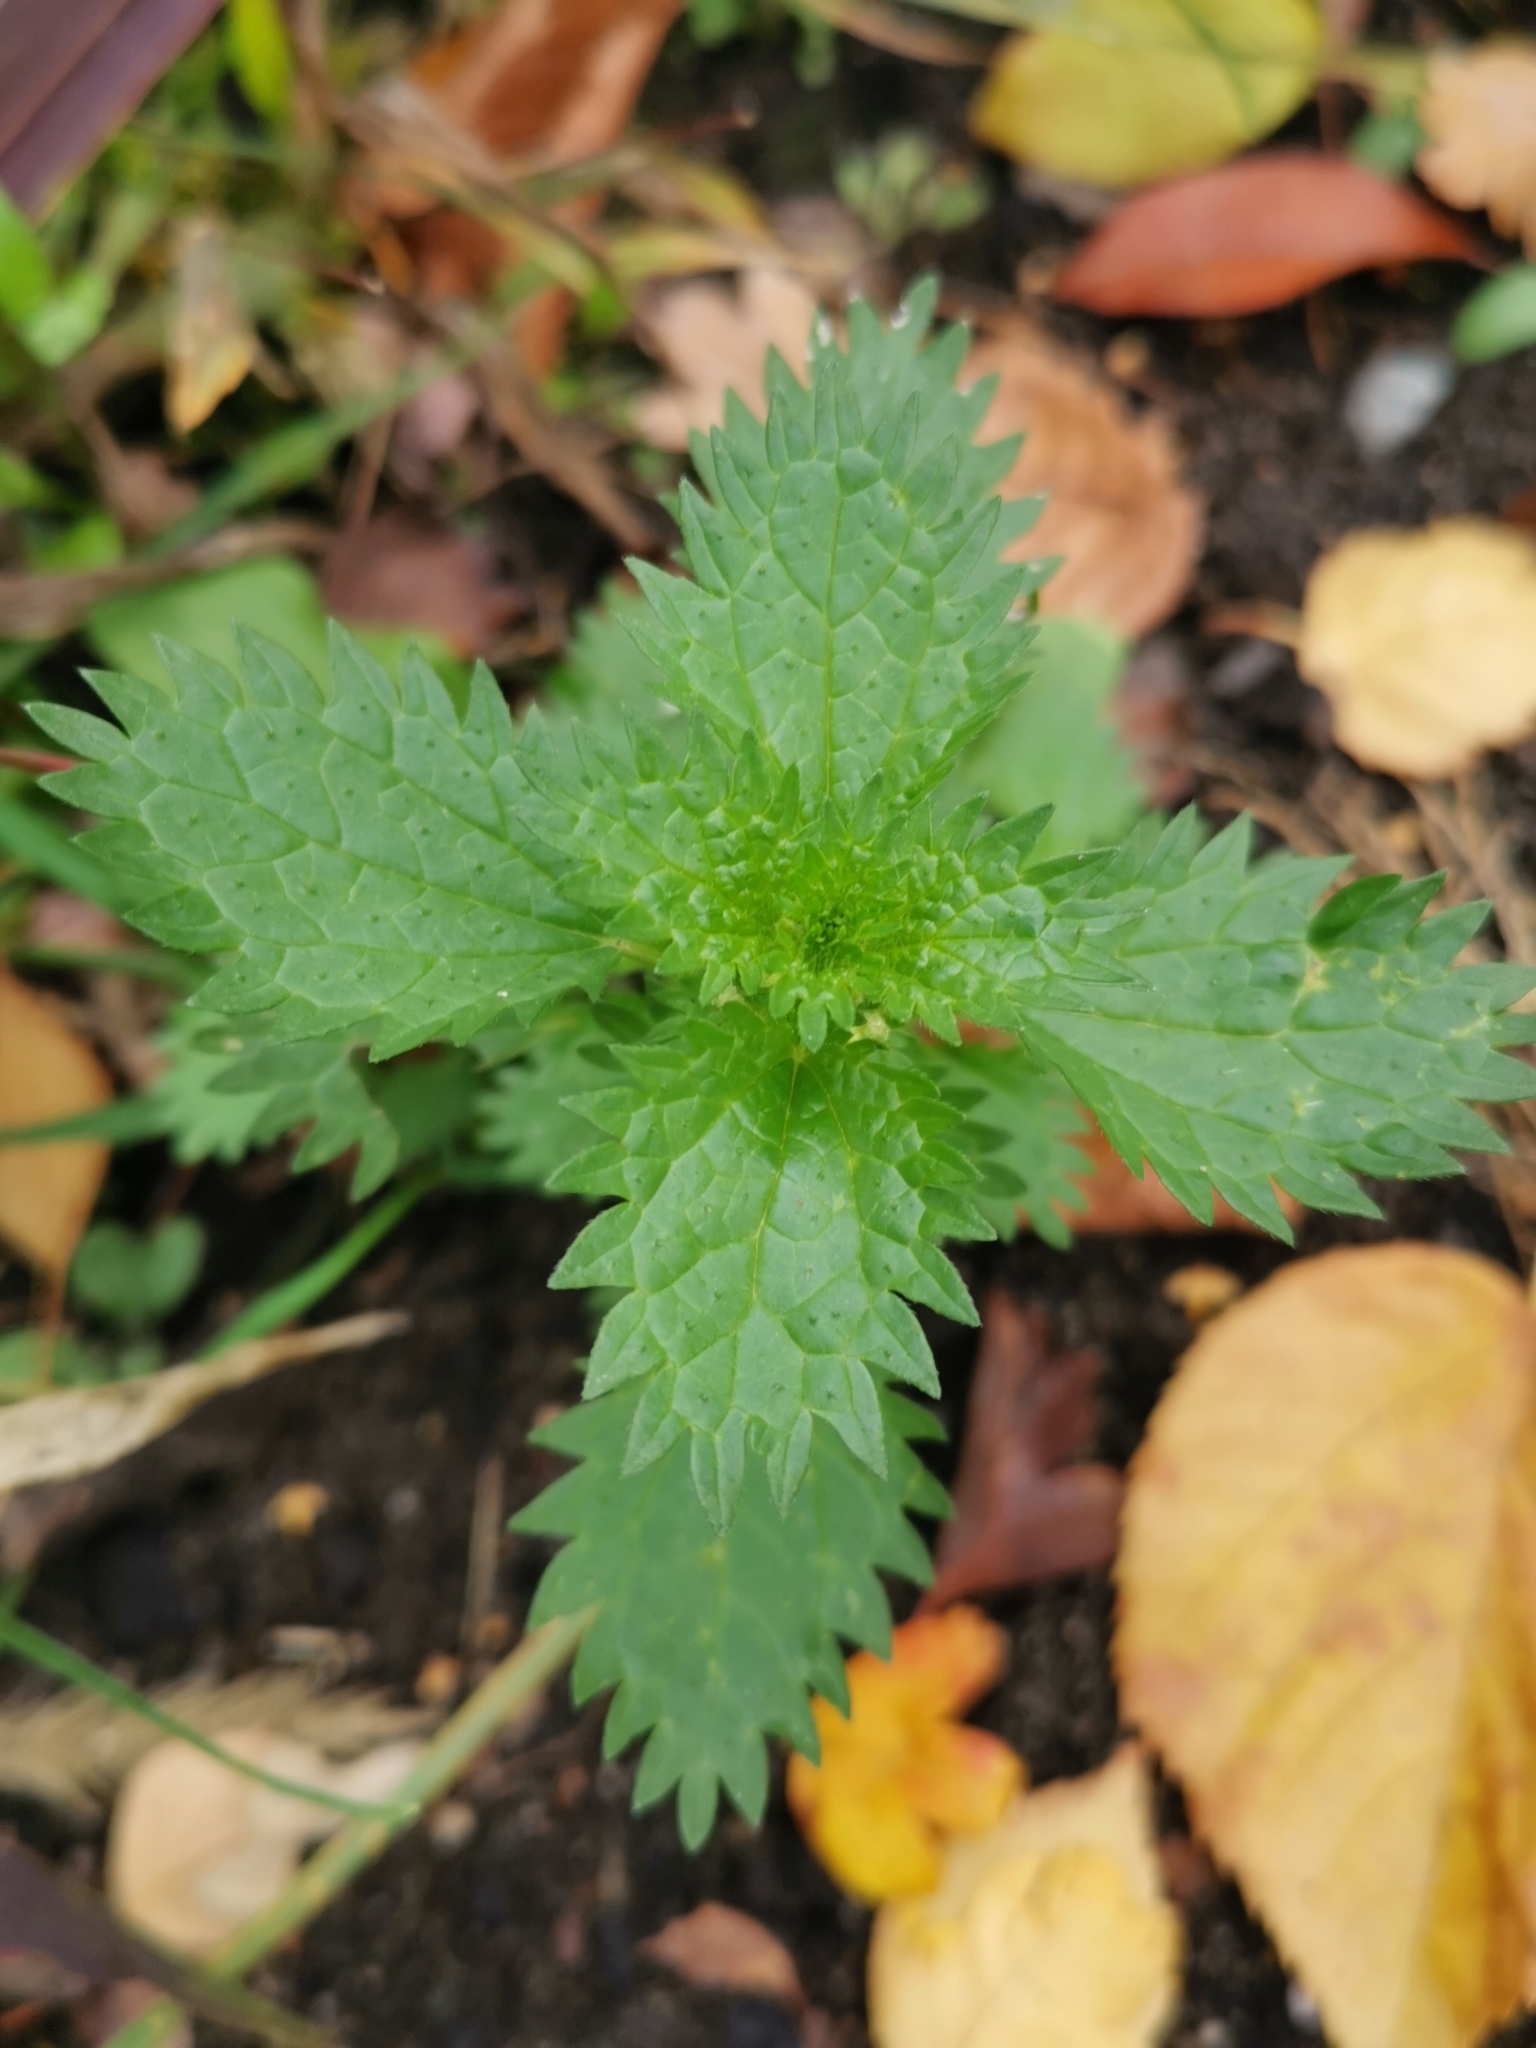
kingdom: Plantae
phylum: Tracheophyta
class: Magnoliopsida
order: Rosales
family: Urticaceae
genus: Urtica
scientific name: Urtica urens
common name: Dwarf nettle
